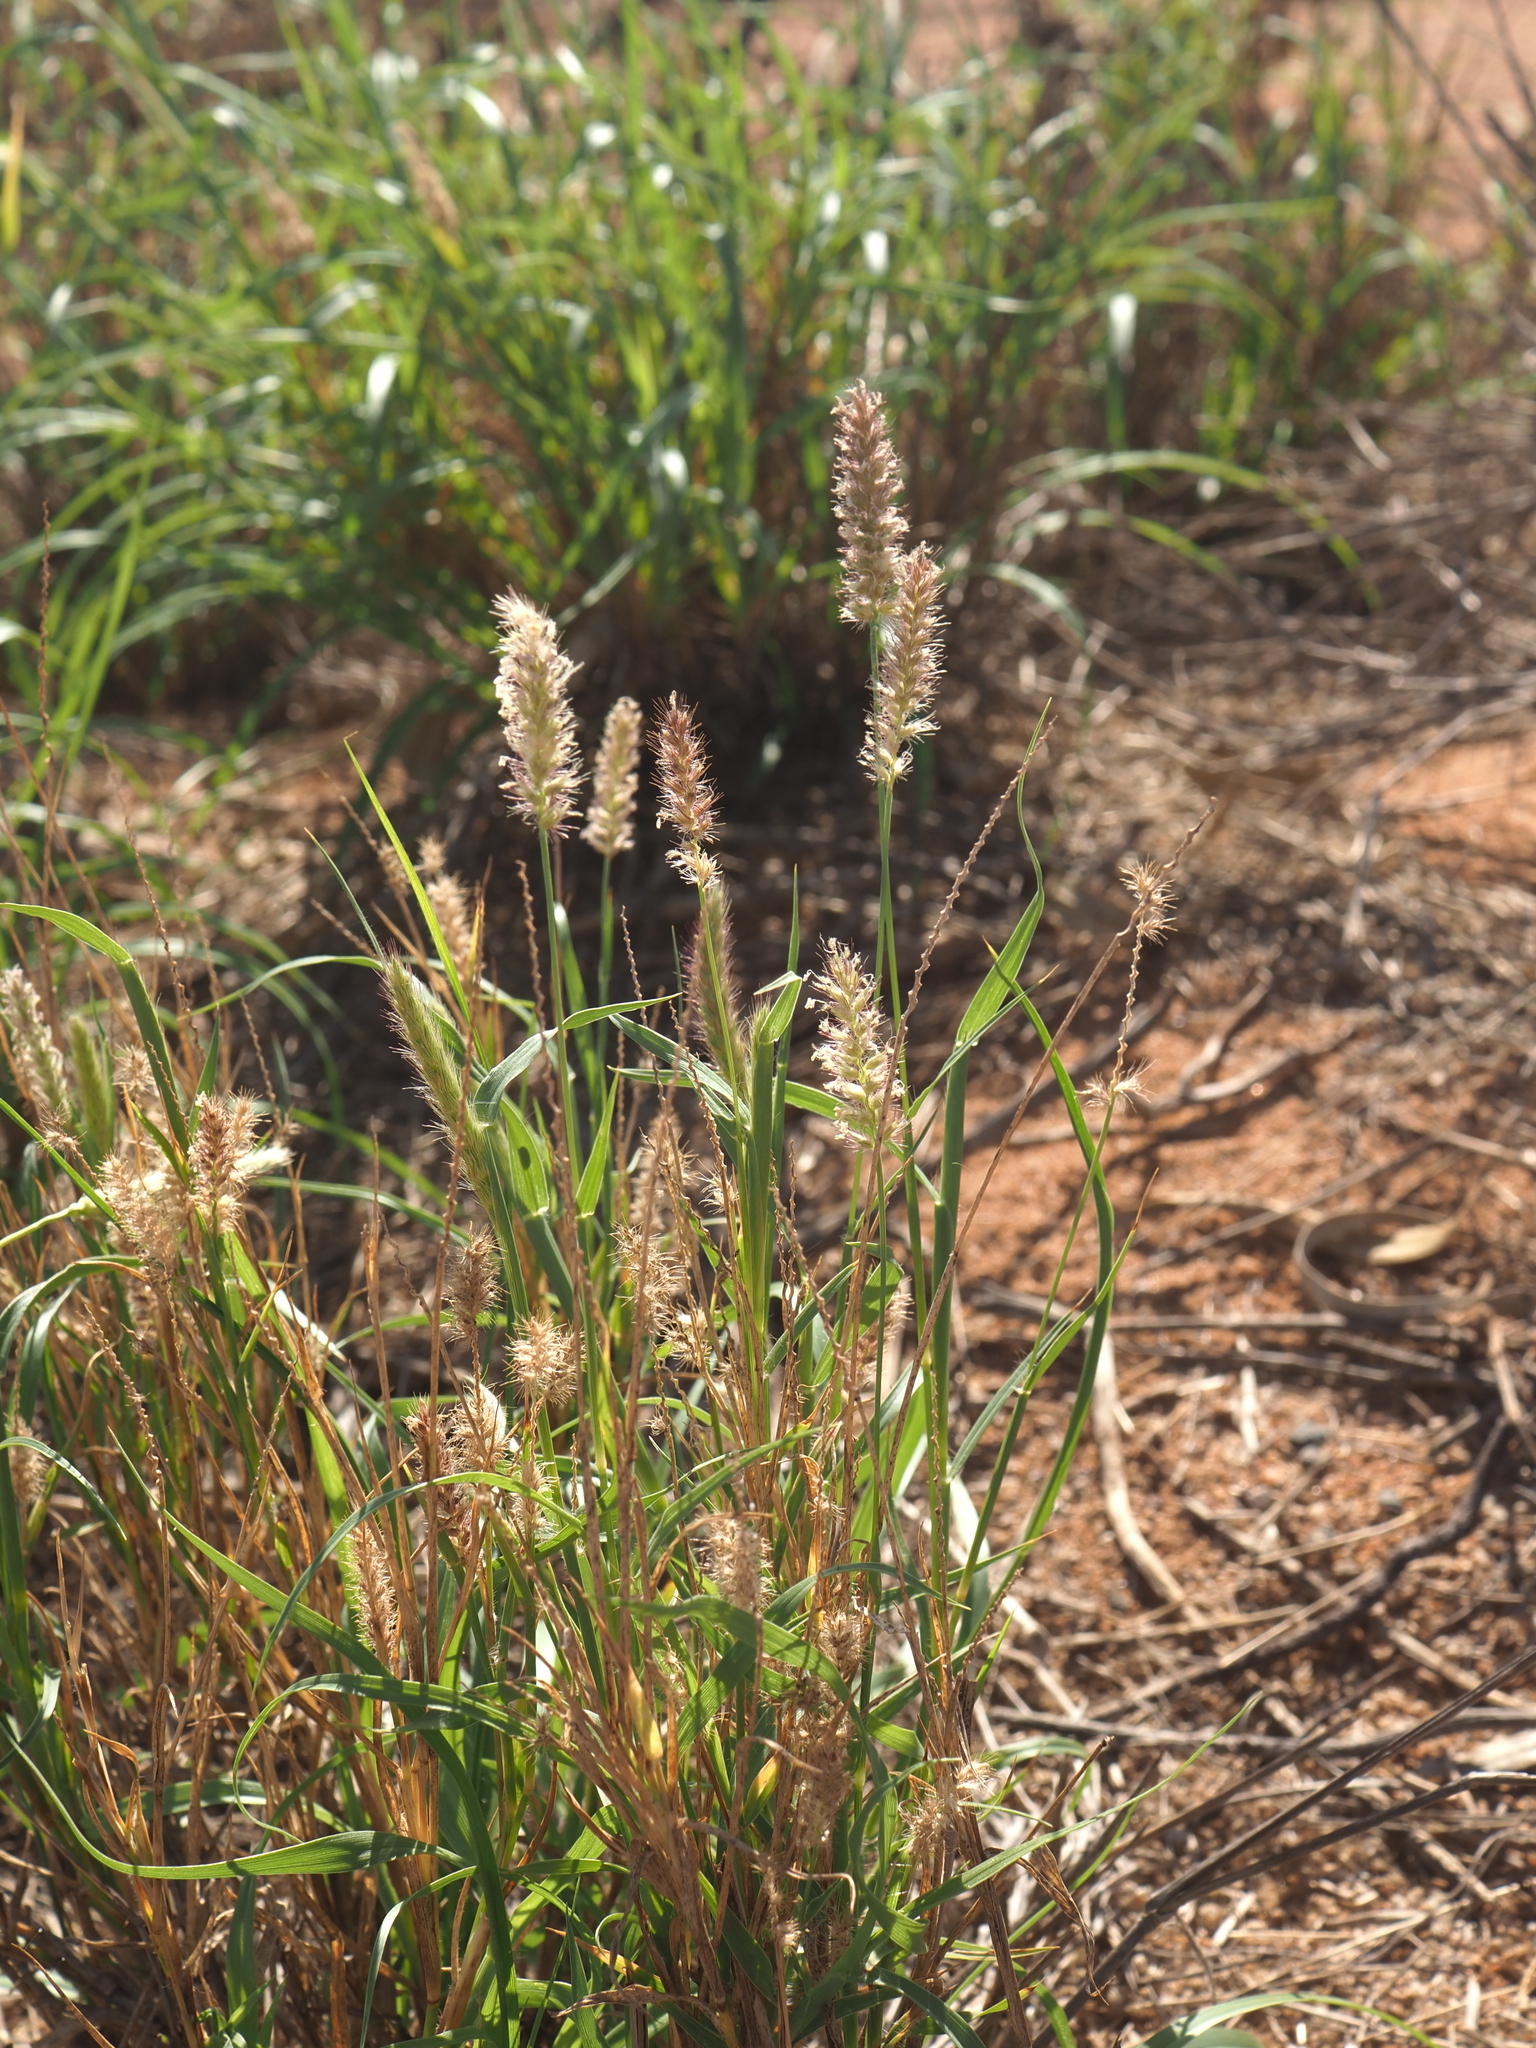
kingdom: Plantae
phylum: Tracheophyta
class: Liliopsida
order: Poales
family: Poaceae
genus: Cenchrus
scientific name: Cenchrus ciliaris
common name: Buffelgrass
